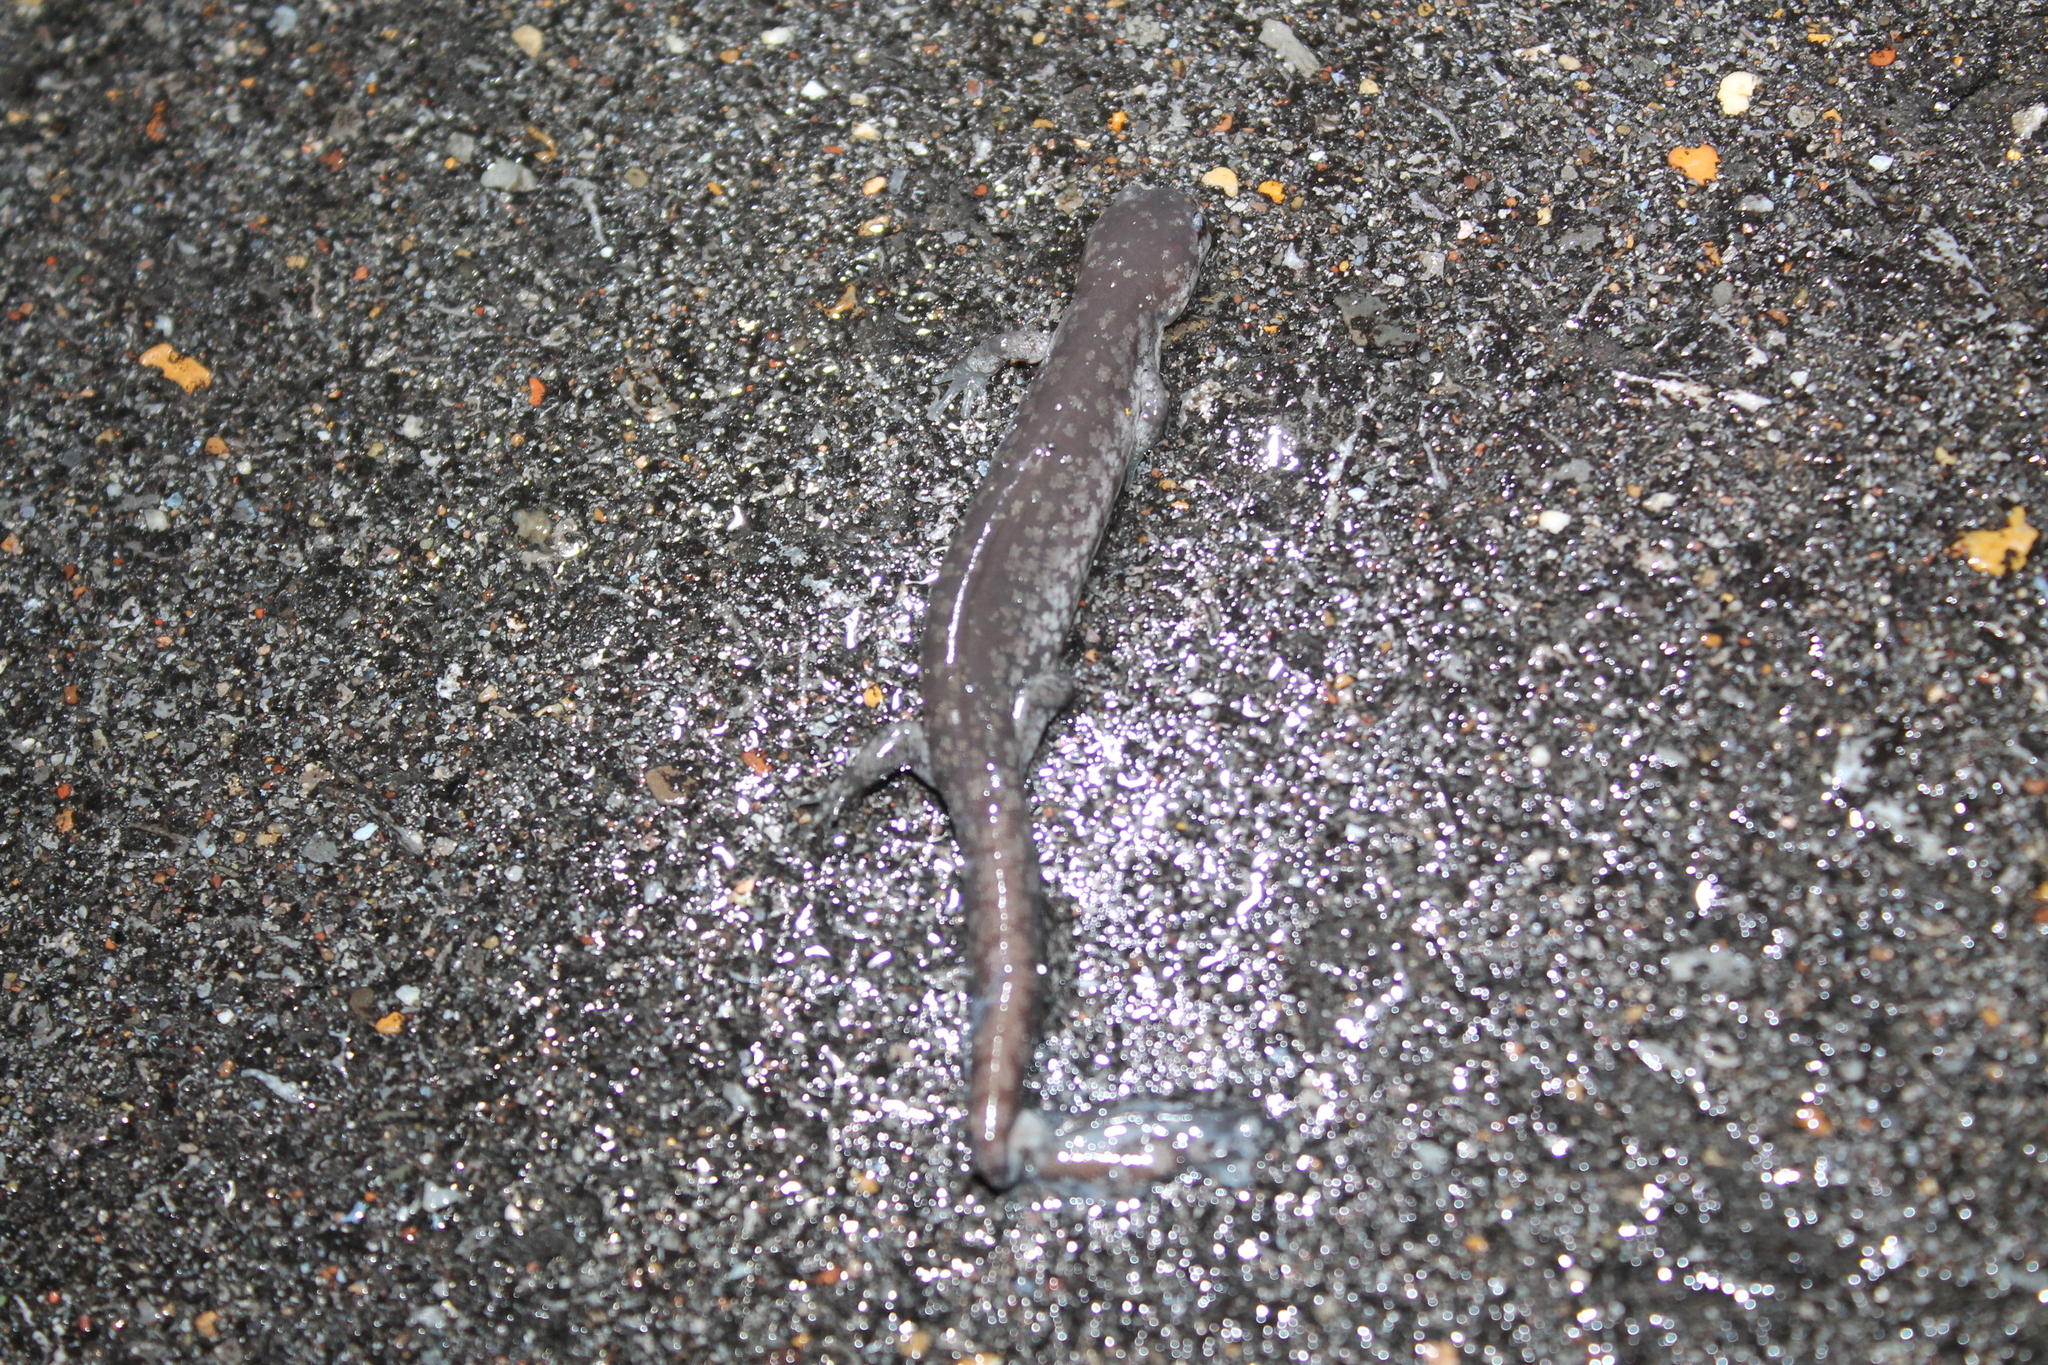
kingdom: Animalia
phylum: Chordata
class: Amphibia
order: Caudata
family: Ambystomatidae
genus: Ambystoma
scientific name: Ambystoma texanum
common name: Small-mouth salamander
